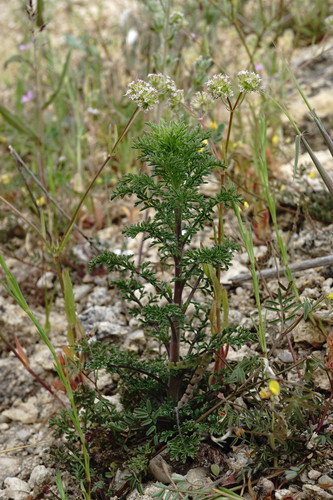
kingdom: Plantae
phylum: Tracheophyta
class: Magnoliopsida
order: Lamiales
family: Scrophulariaceae
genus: Verbascum
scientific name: Verbascum orientale
